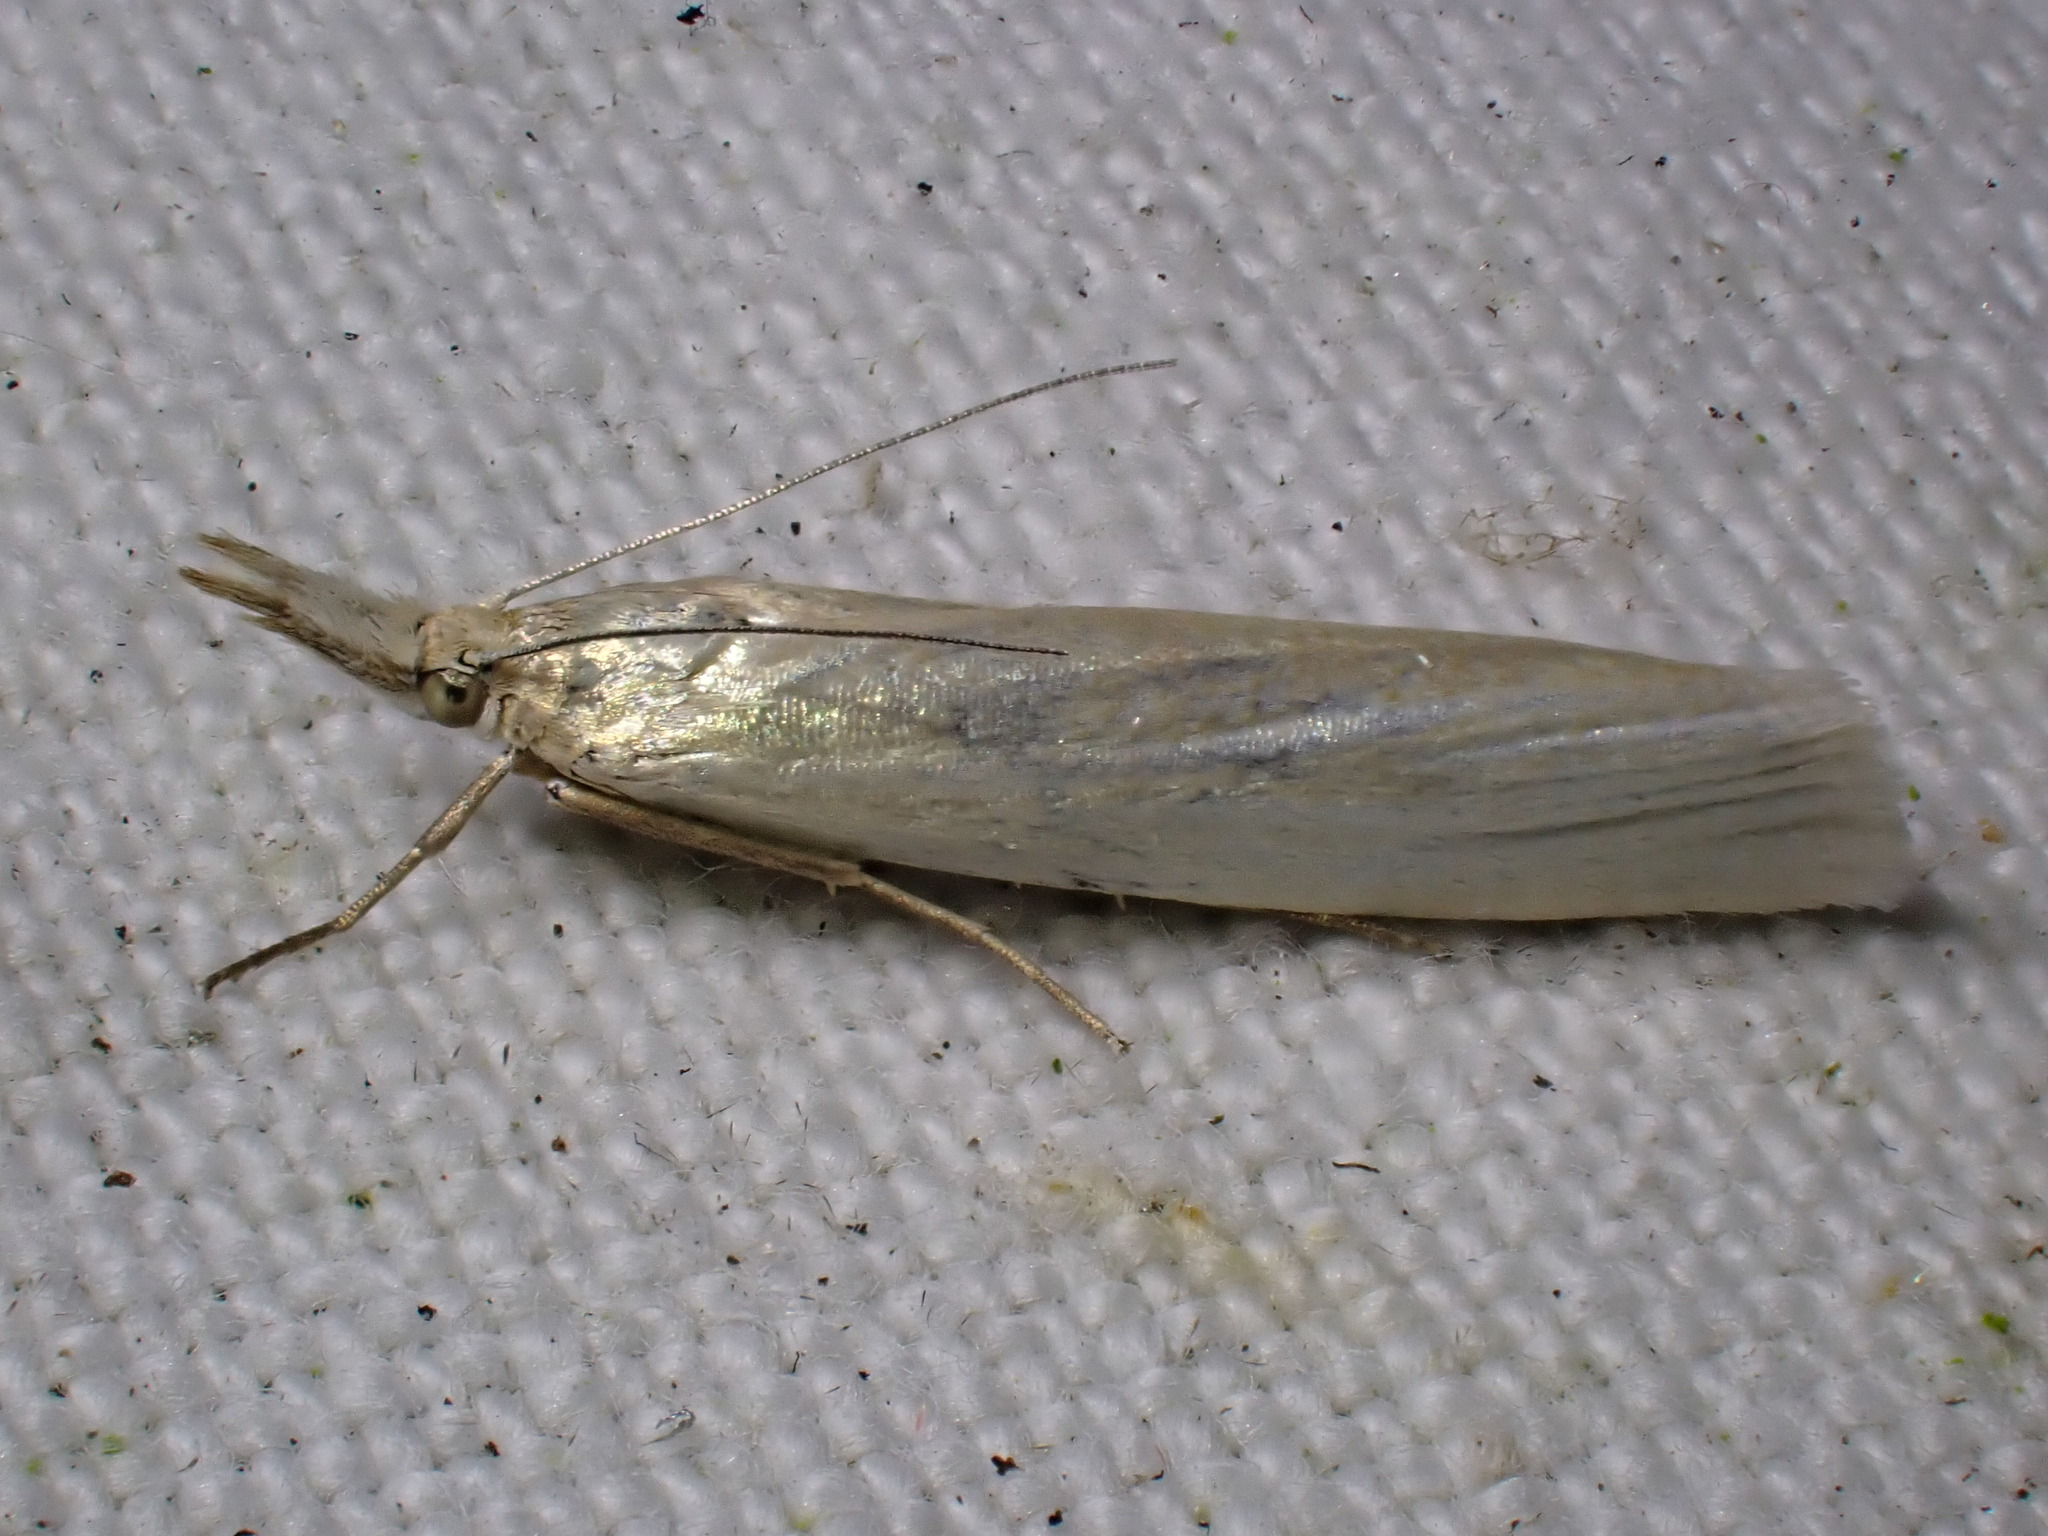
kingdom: Animalia
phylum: Arthropoda
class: Insecta
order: Lepidoptera
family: Crambidae
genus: Crambus
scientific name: Crambus perlellus
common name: Yellow satin veneer
